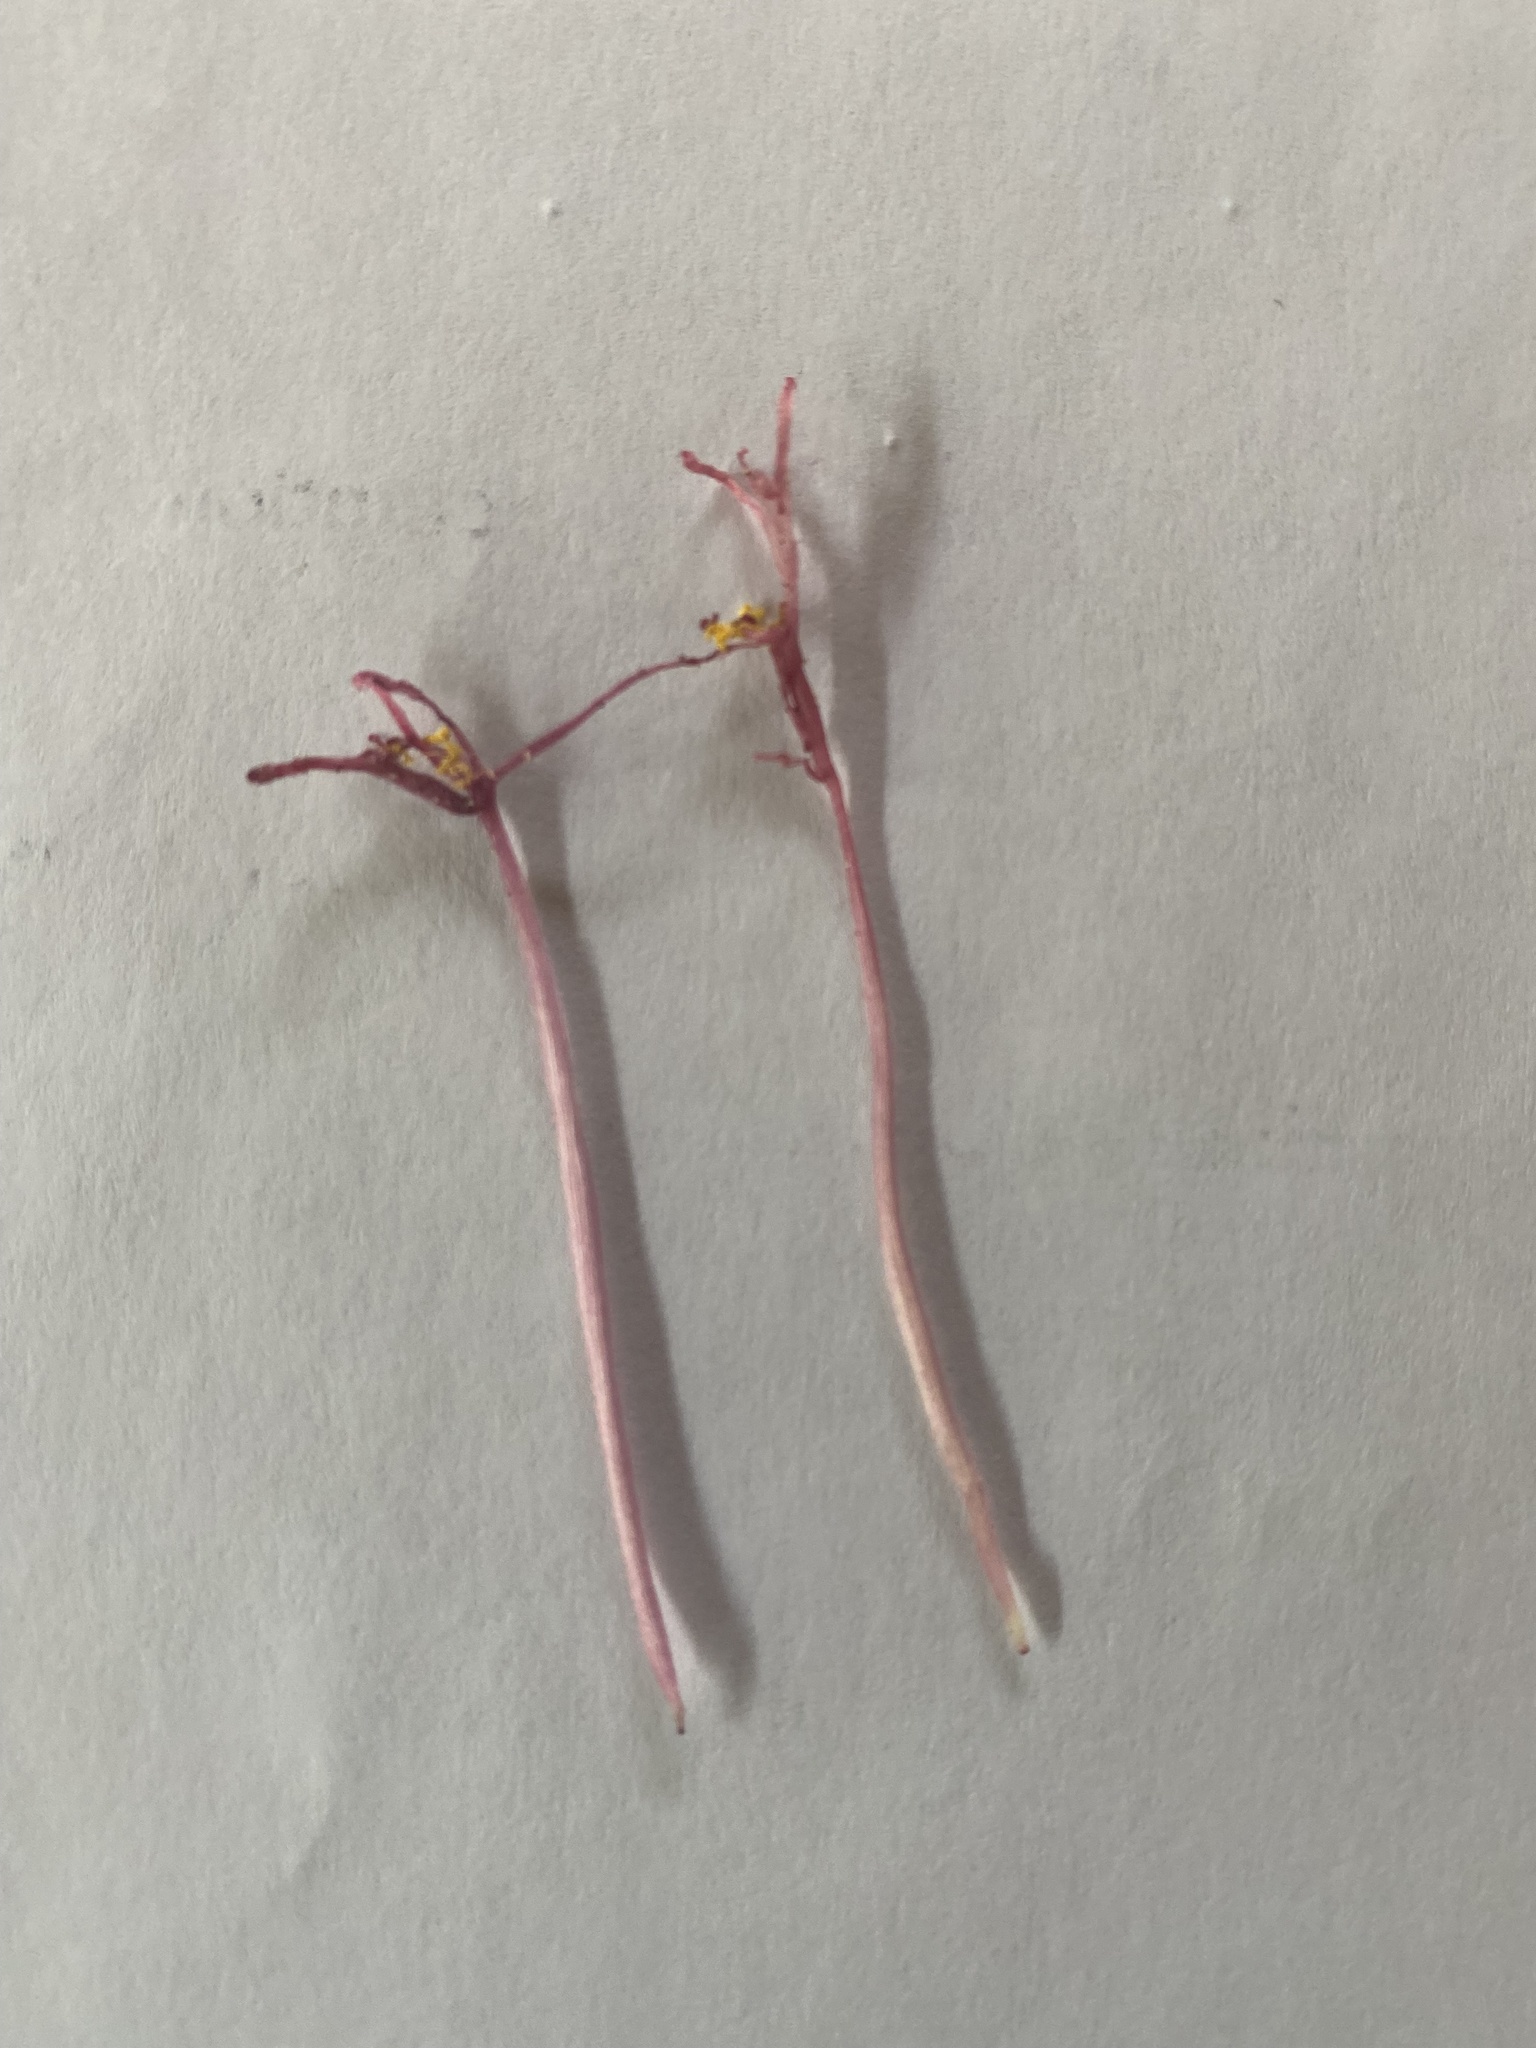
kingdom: Plantae
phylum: Tracheophyta
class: Liliopsida
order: Asparagales
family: Amaryllidaceae
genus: Gethyllis
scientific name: Gethyllis villosa
